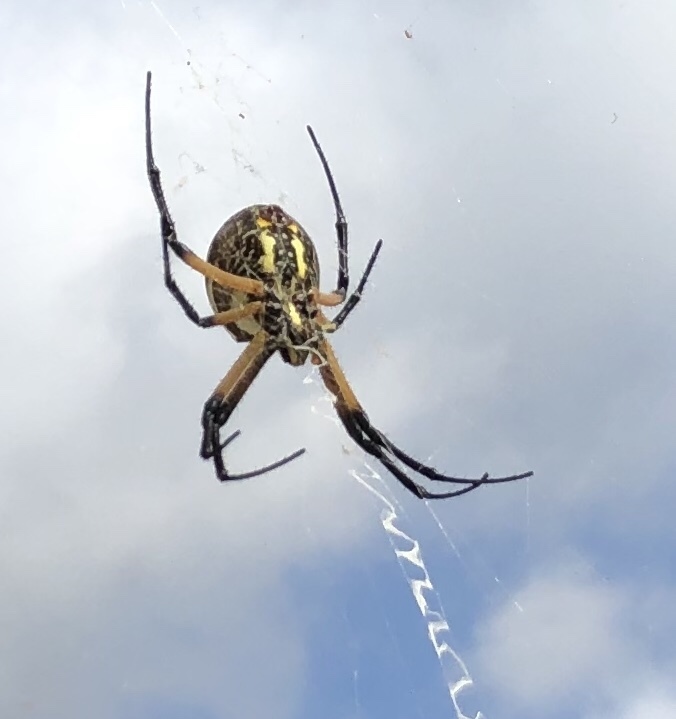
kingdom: Animalia
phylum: Arthropoda
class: Arachnida
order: Araneae
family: Araneidae
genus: Argiope
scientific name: Argiope aurantia
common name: Orb weavers
